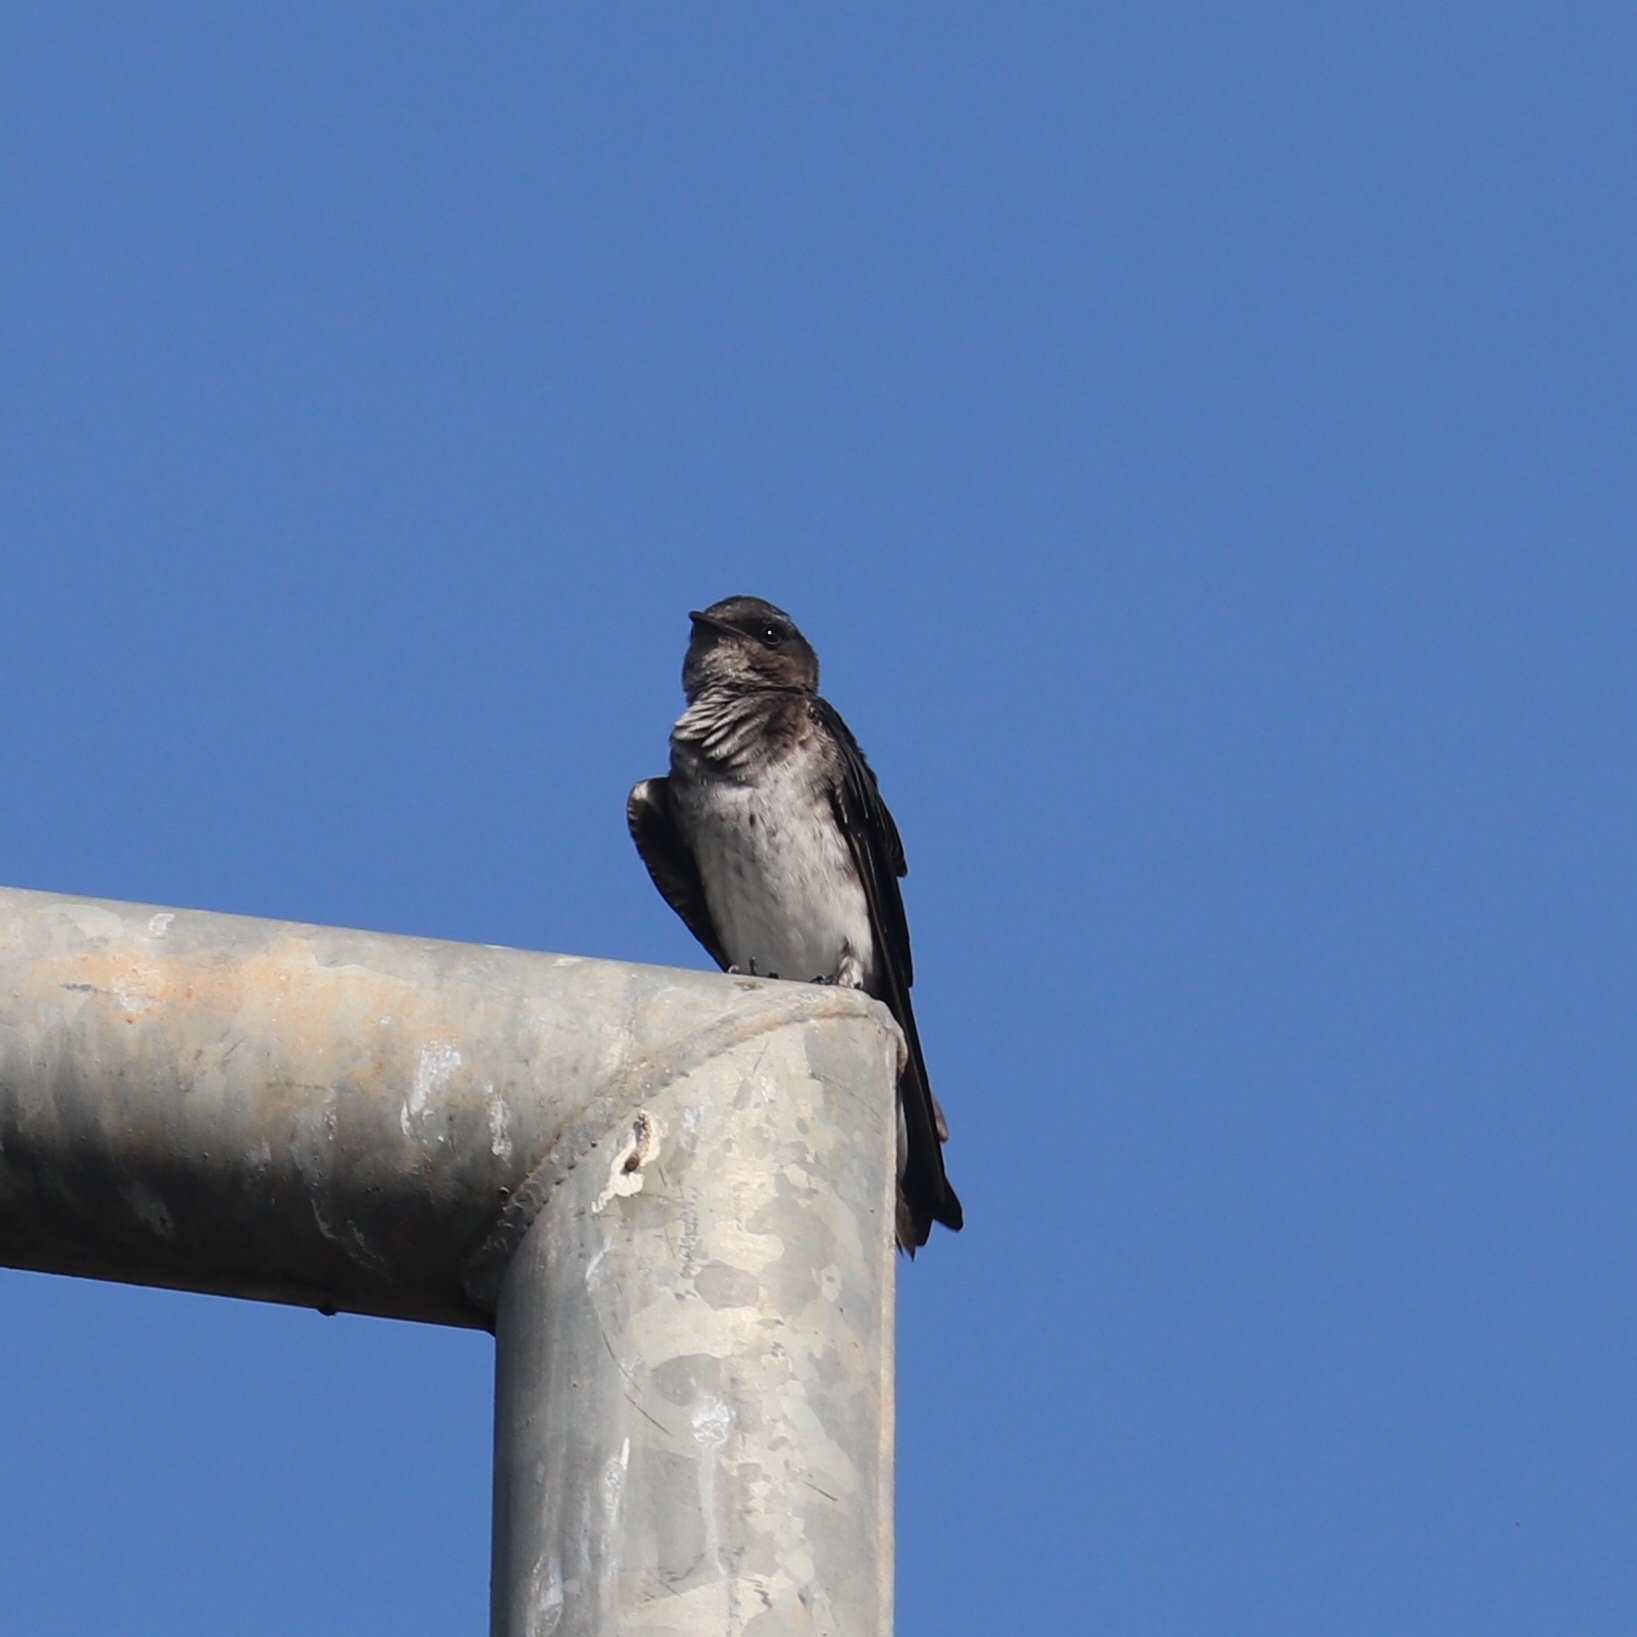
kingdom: Animalia
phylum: Chordata
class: Aves
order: Passeriformes
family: Hirundinidae
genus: Progne
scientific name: Progne chalybea
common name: Grey-breasted martin
